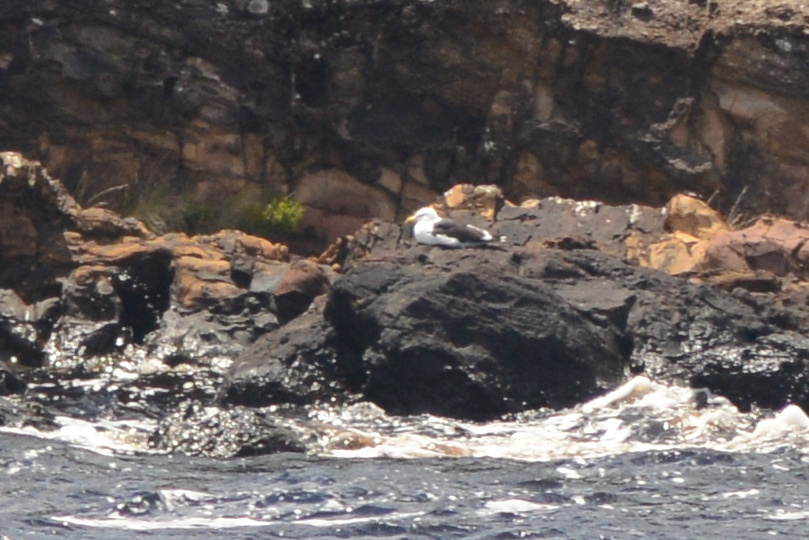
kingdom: Animalia
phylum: Chordata
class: Aves
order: Charadriiformes
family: Laridae
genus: Larus
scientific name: Larus dominicanus
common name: Kelp gull
